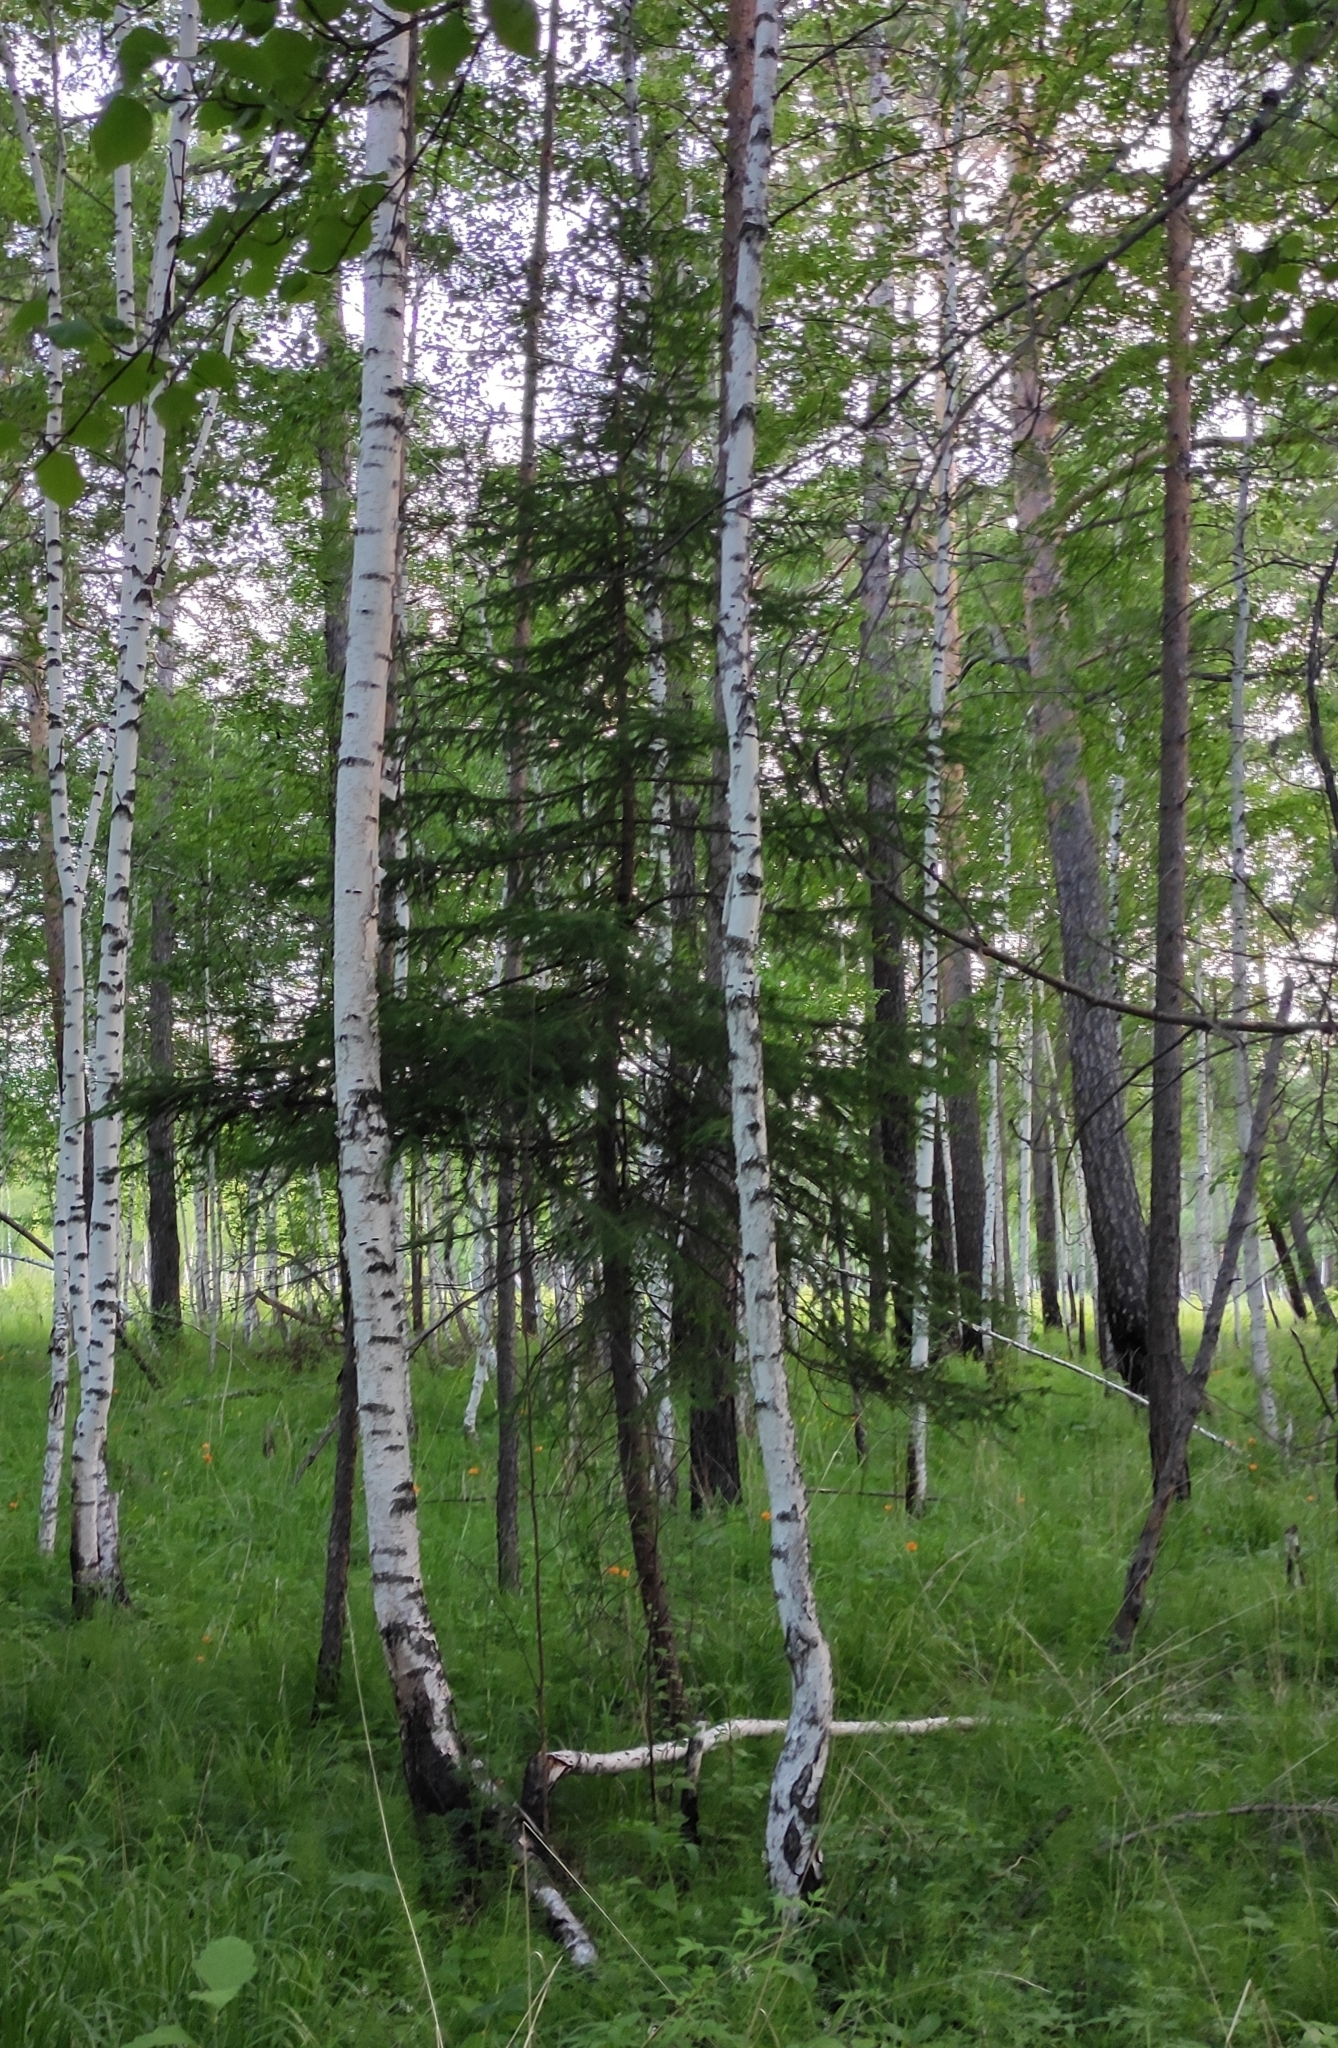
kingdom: Plantae
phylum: Tracheophyta
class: Pinopsida
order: Pinales
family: Pinaceae
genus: Picea
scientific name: Picea obovata
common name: Siberian spruce
